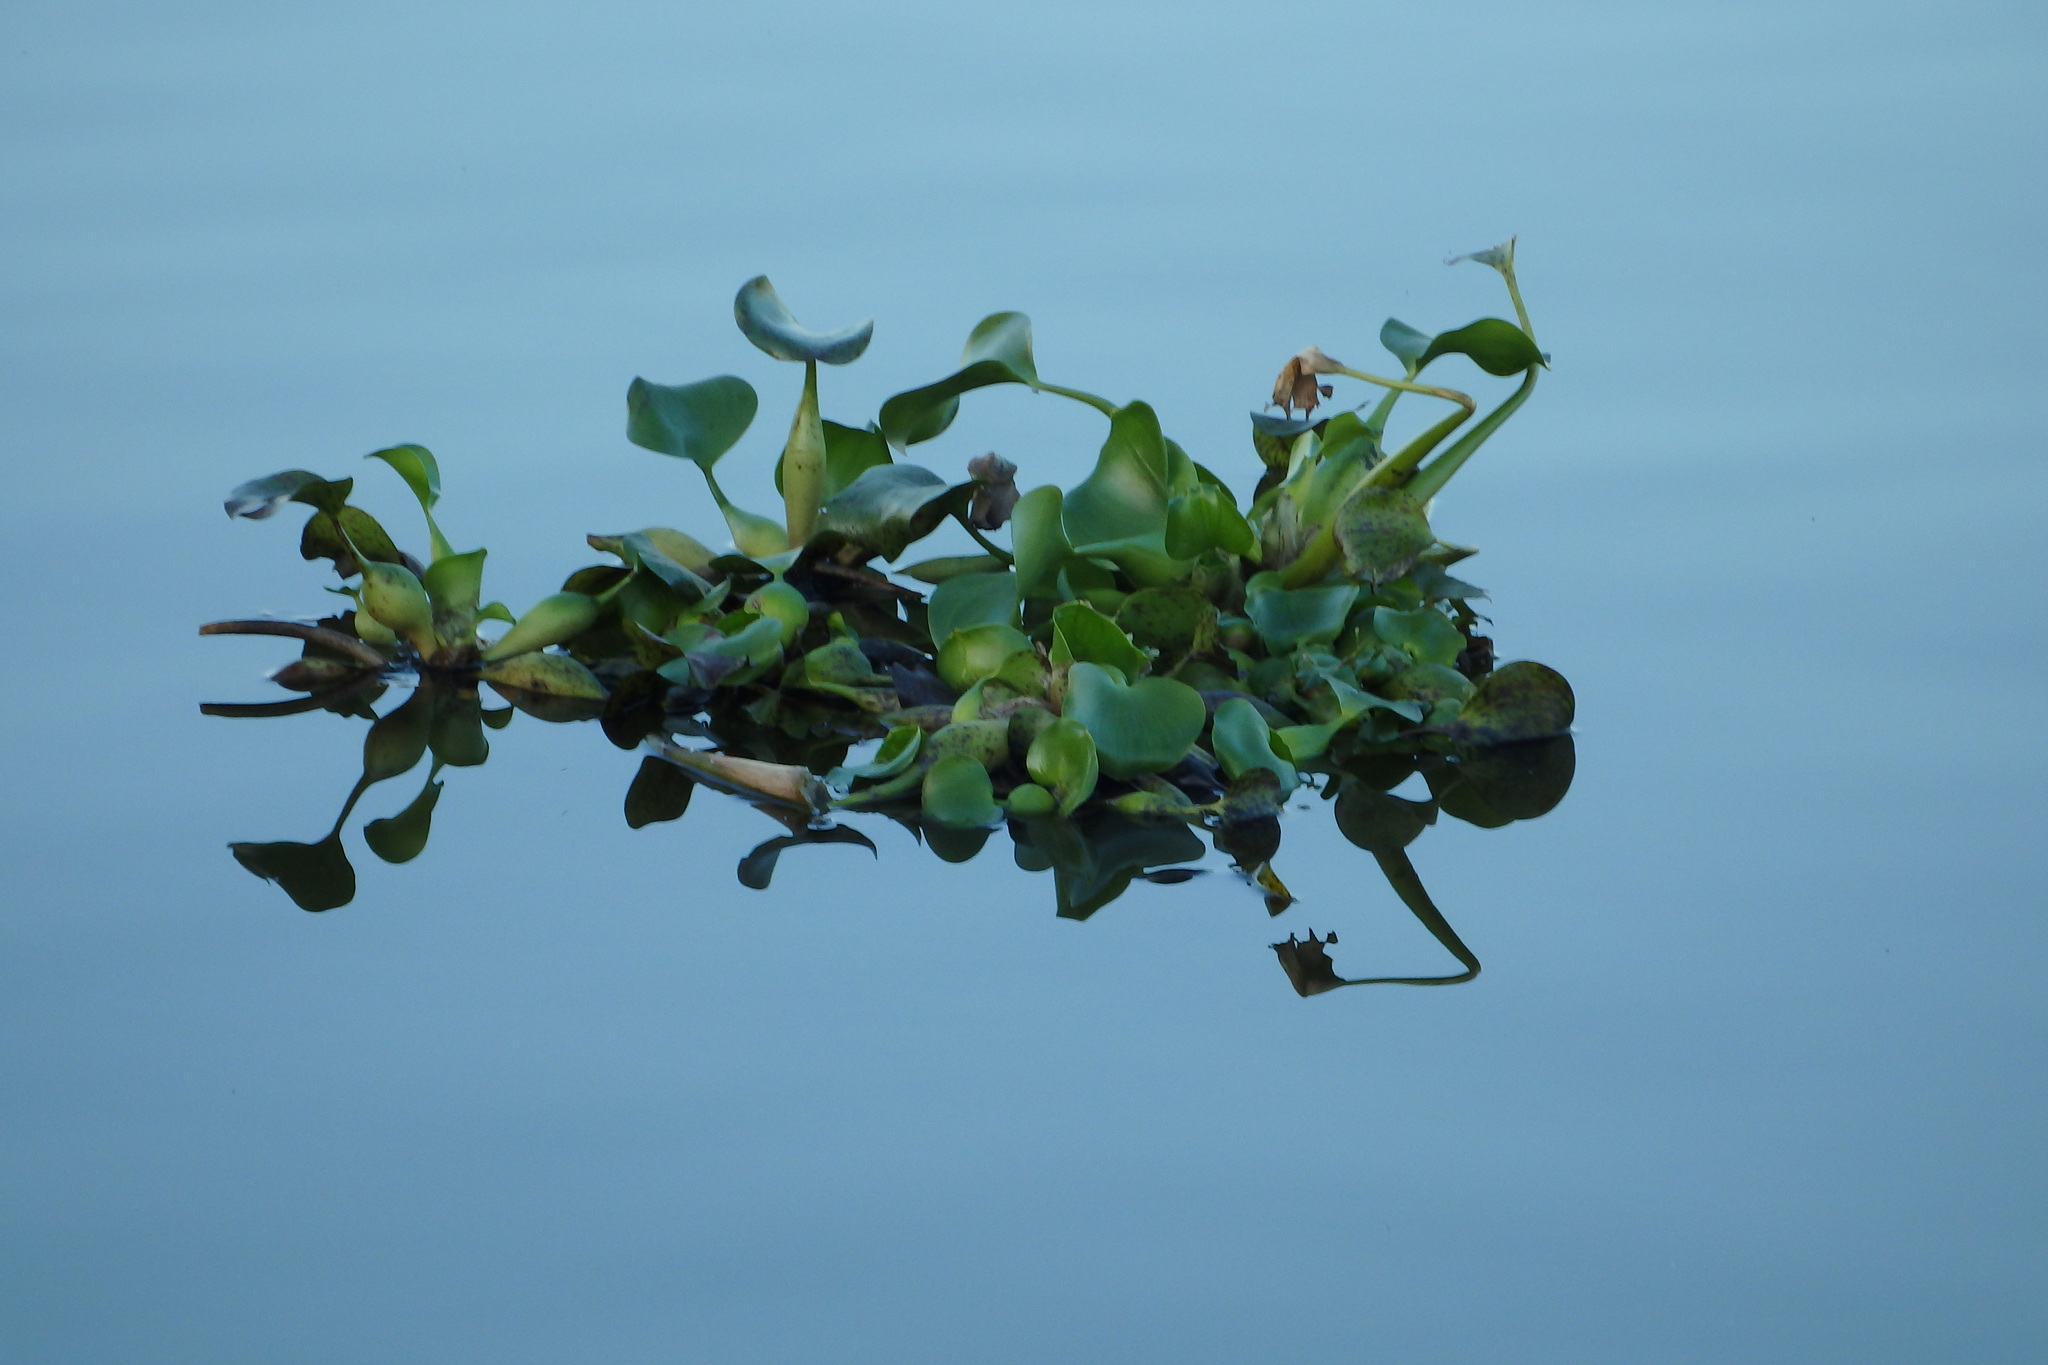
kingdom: Plantae
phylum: Tracheophyta
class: Liliopsida
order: Commelinales
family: Pontederiaceae
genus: Pontederia
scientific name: Pontederia crassipes
